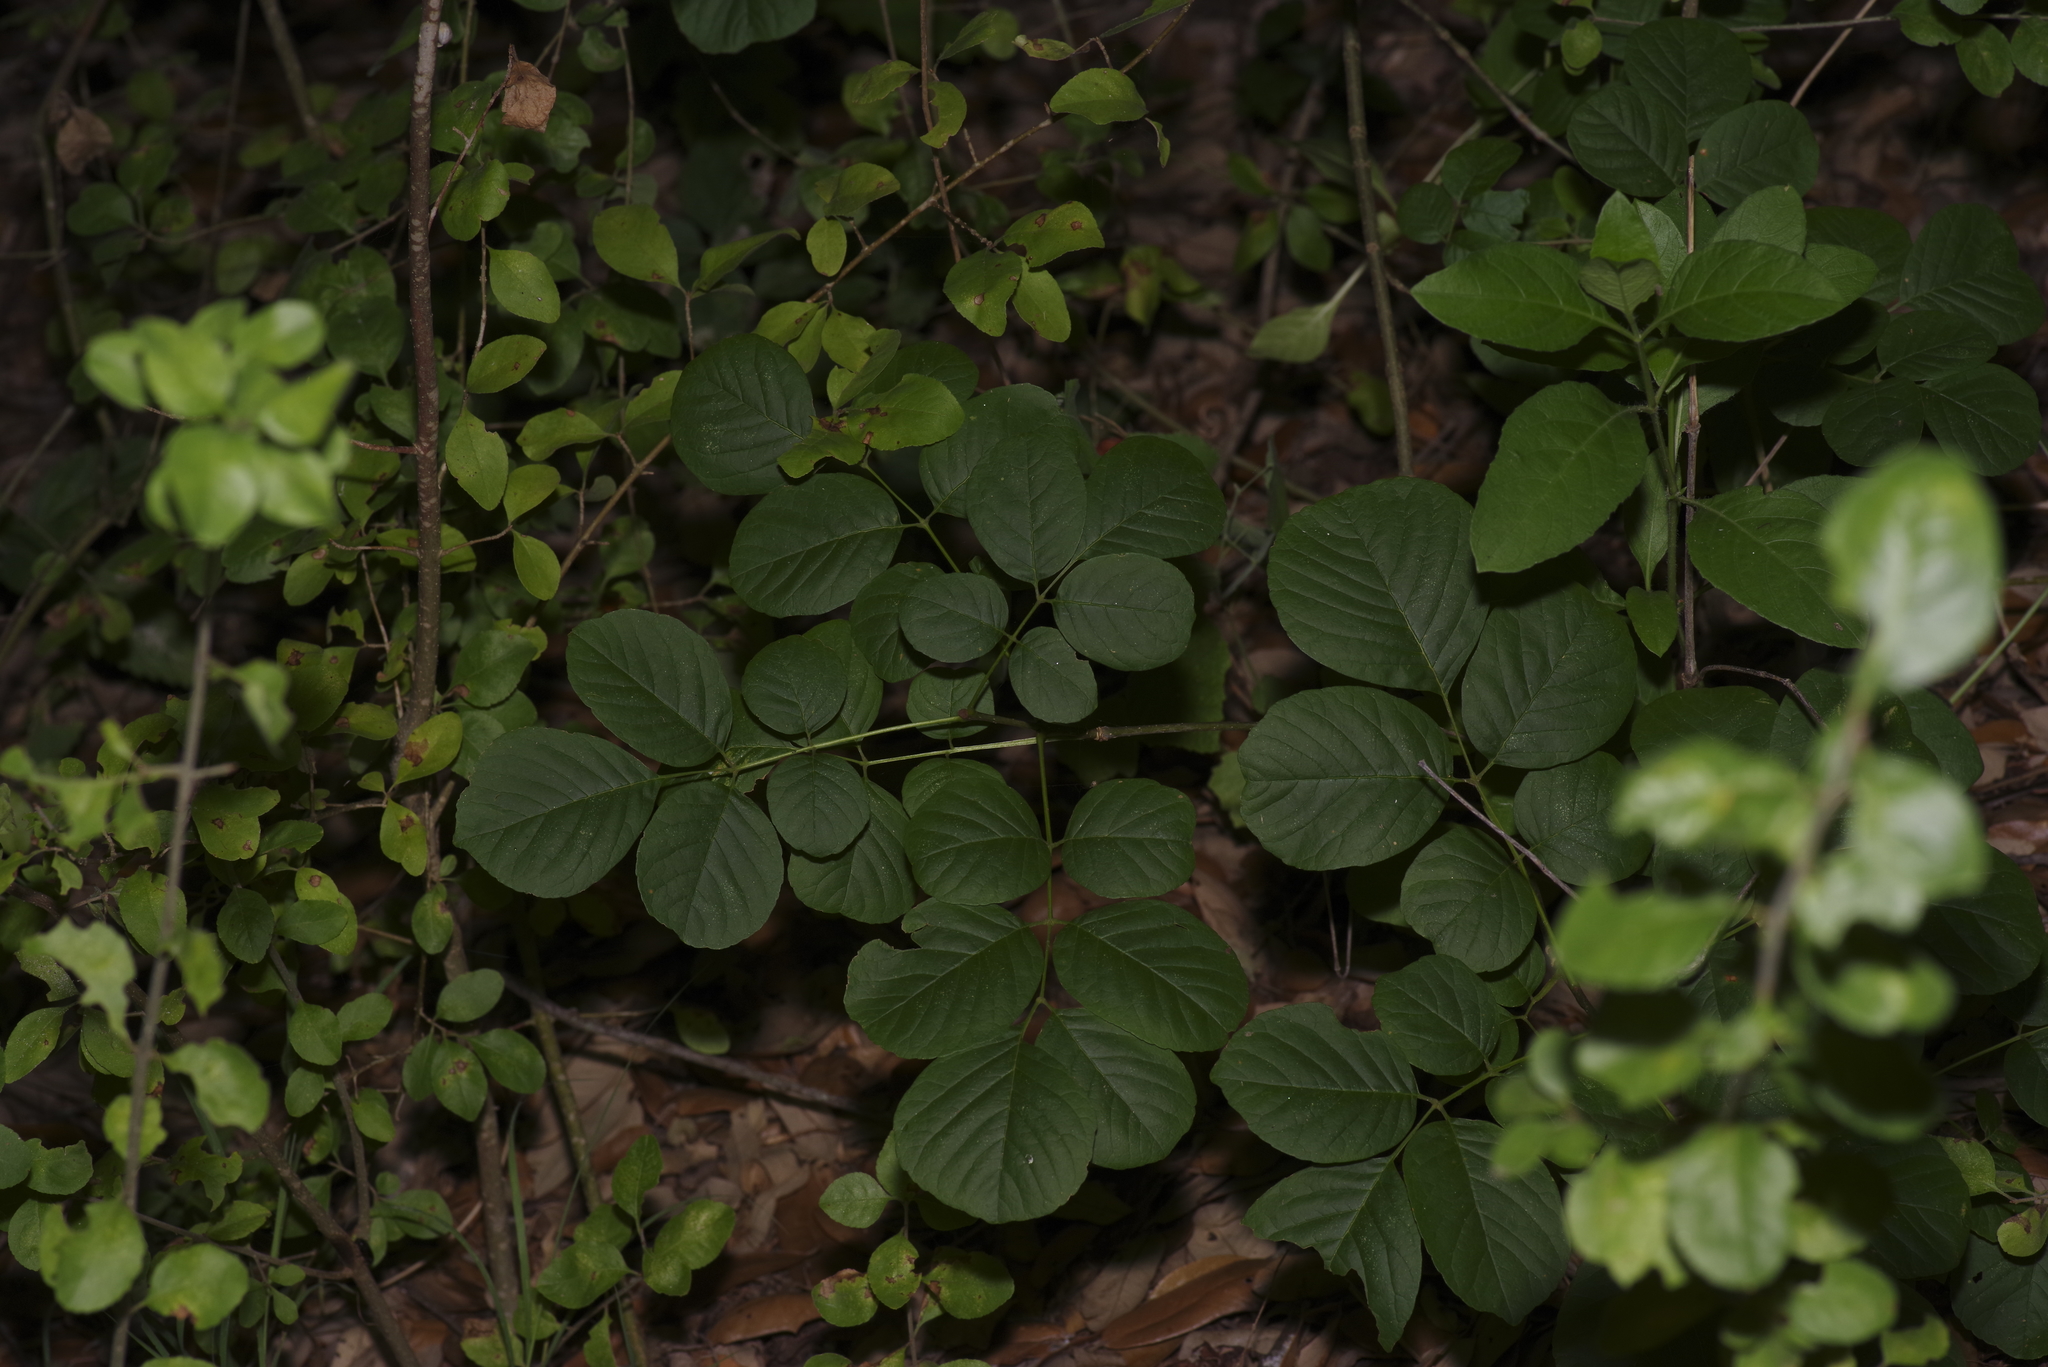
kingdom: Plantae
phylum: Tracheophyta
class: Magnoliopsida
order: Lamiales
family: Oleaceae
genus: Fraxinus
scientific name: Fraxinus albicans
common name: Texas ash
